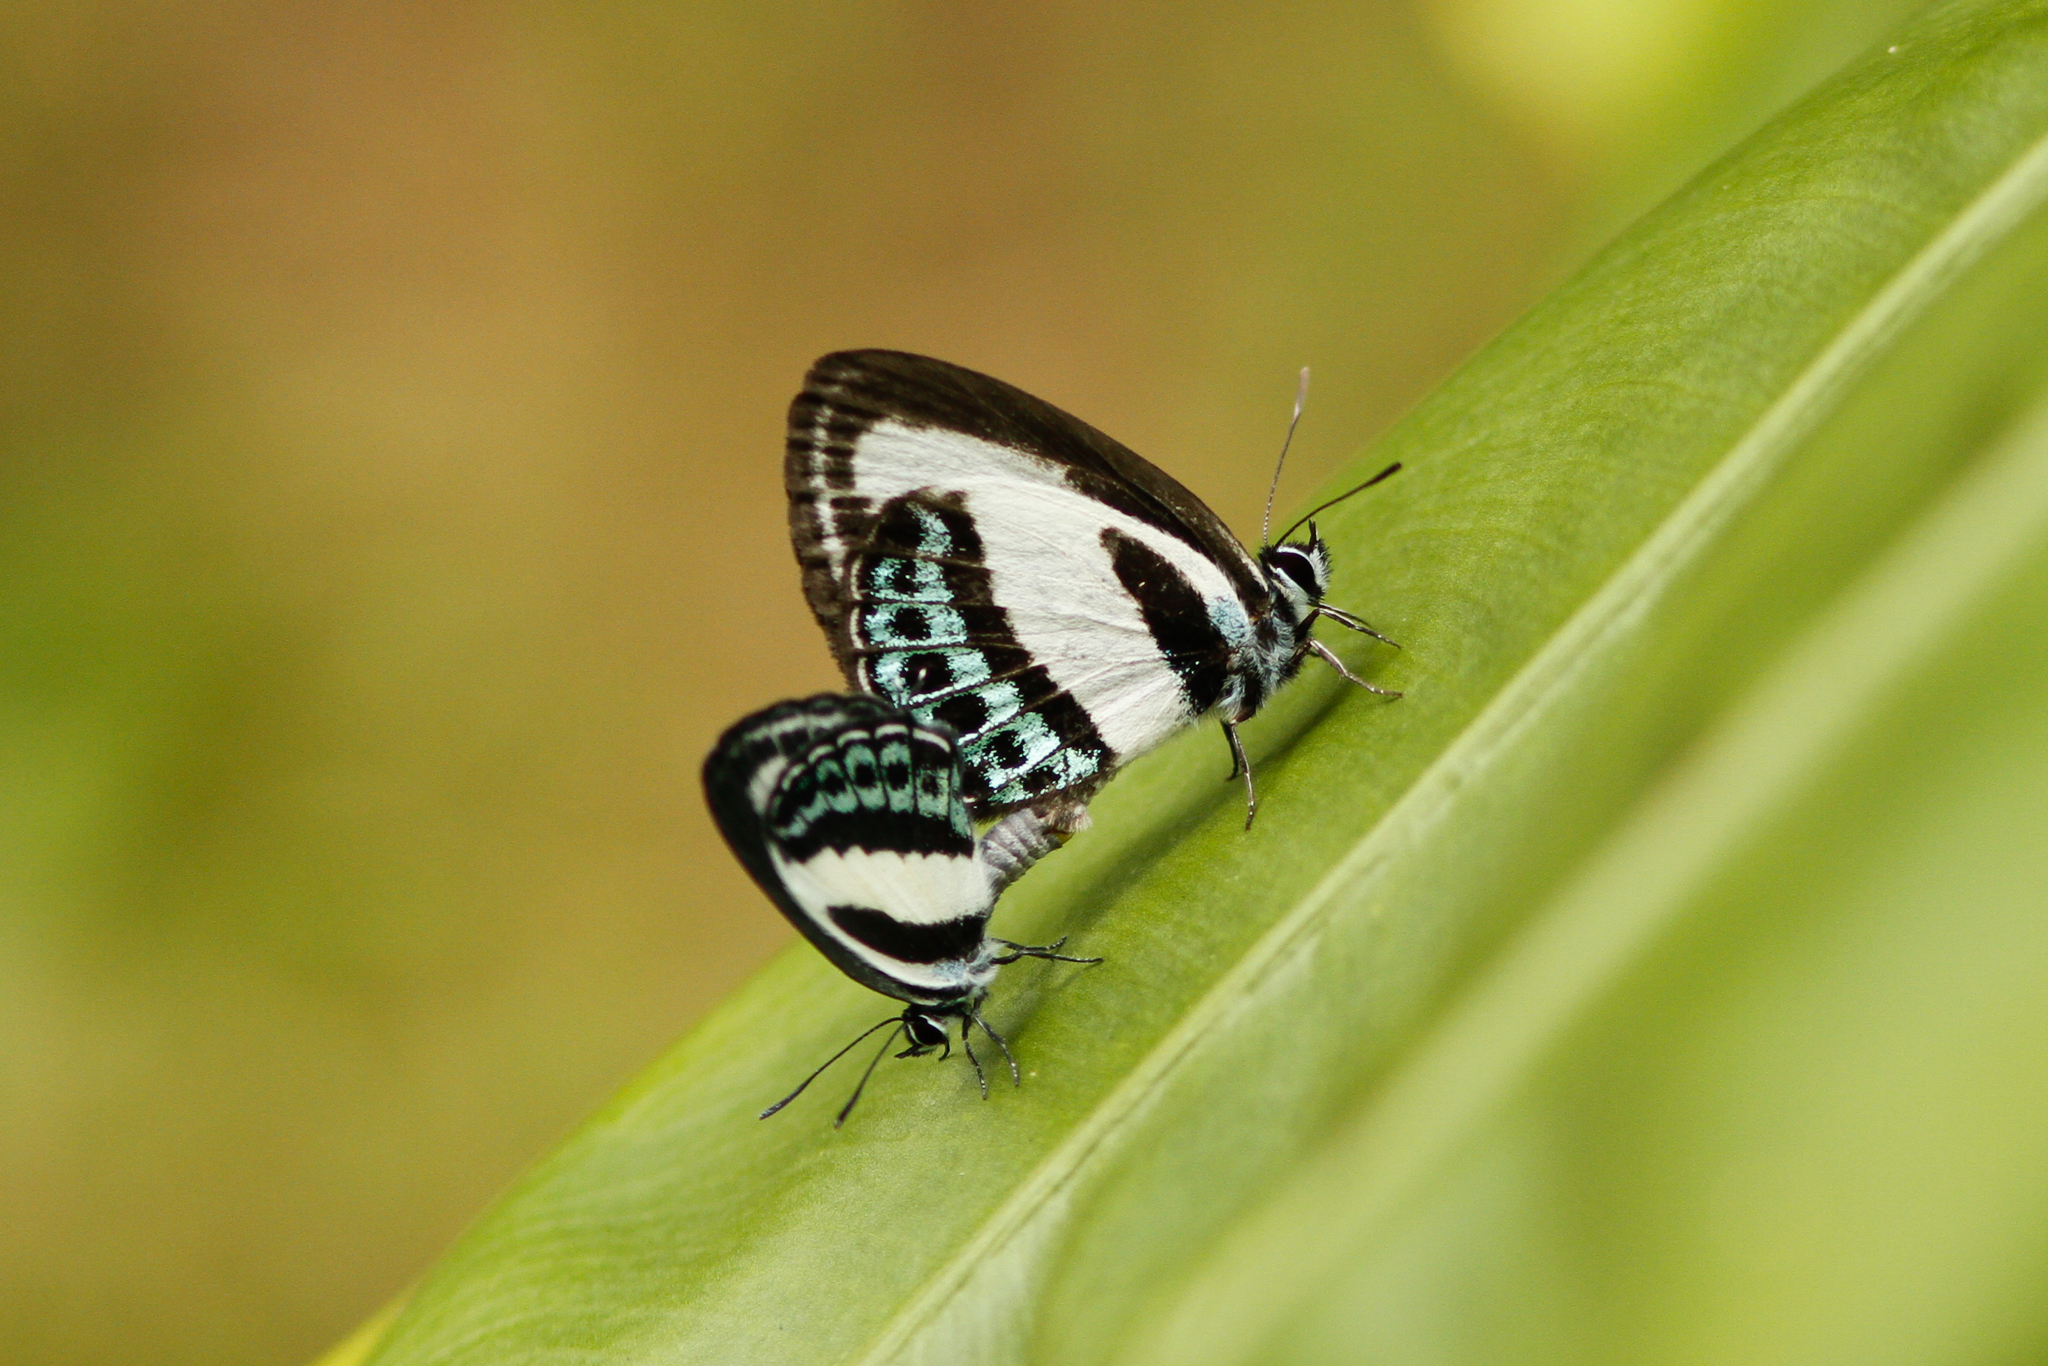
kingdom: Animalia
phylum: Arthropoda
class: Insecta
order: Lepidoptera
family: Lycaenidae
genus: Nacaduba
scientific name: Nacaduba cyanea
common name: Tailed green-banded line blue
